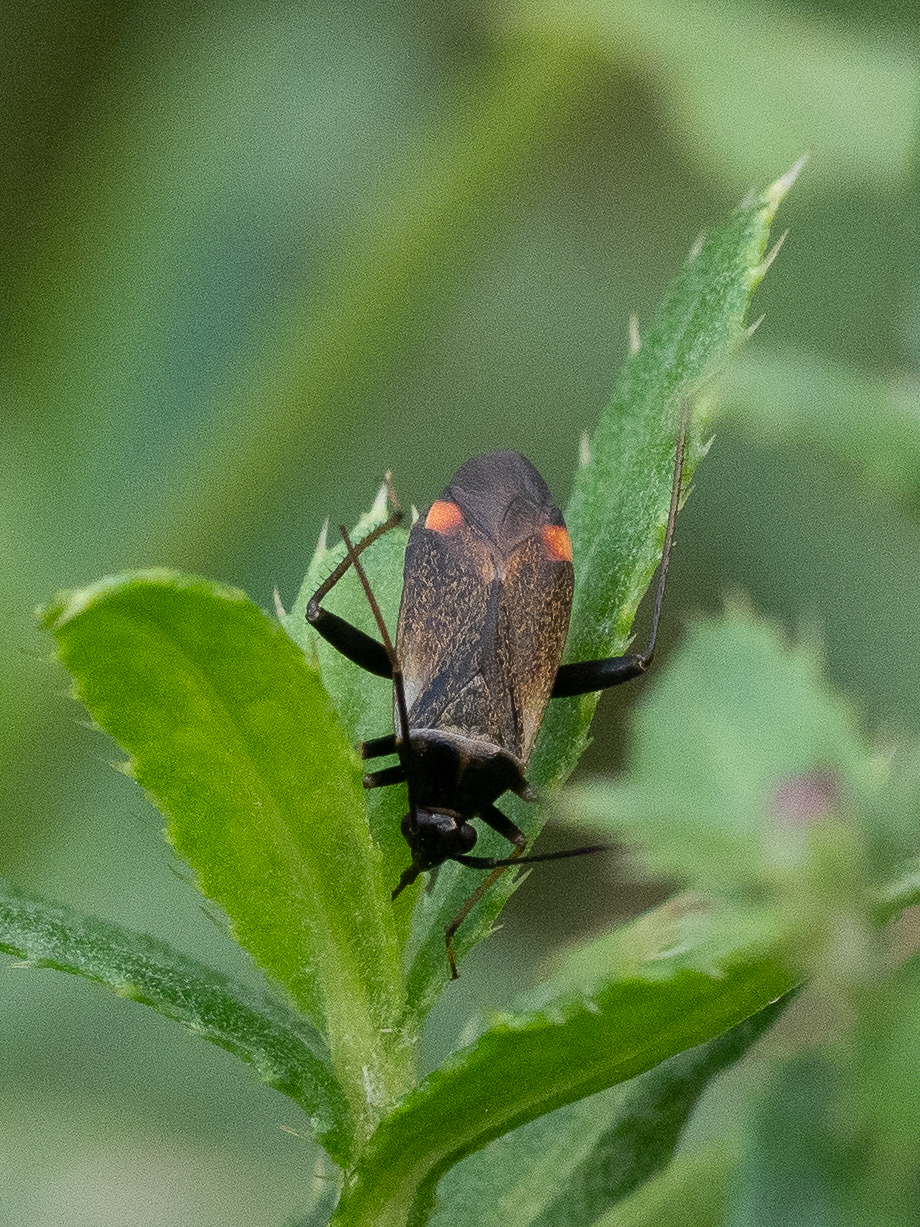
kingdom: Animalia
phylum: Arthropoda
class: Insecta
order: Hemiptera
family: Miridae
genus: Adelphocoris
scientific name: Adelphocoris seticornis
